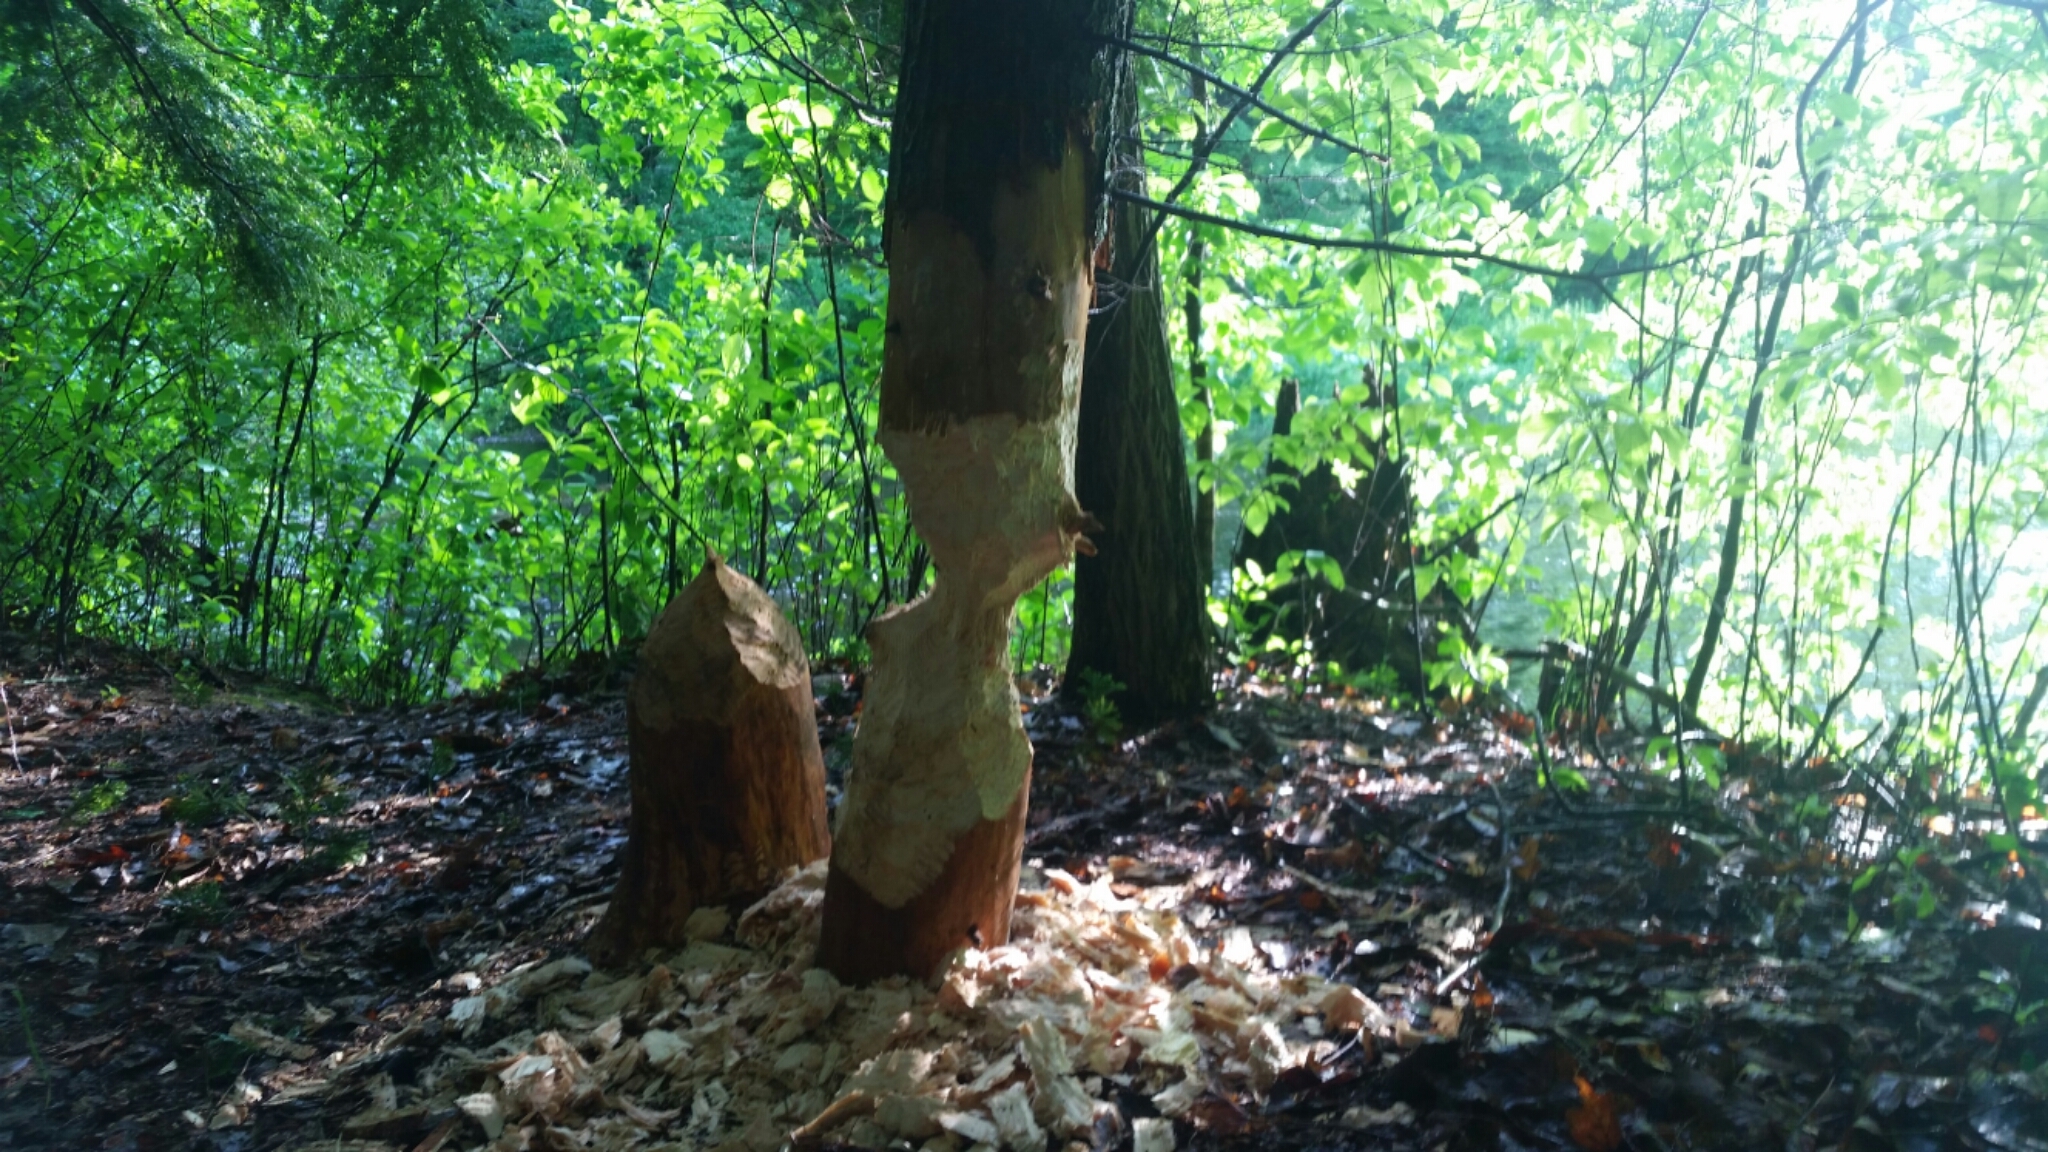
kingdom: Animalia
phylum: Chordata
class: Mammalia
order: Rodentia
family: Castoridae
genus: Castor
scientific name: Castor canadensis
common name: American beaver
